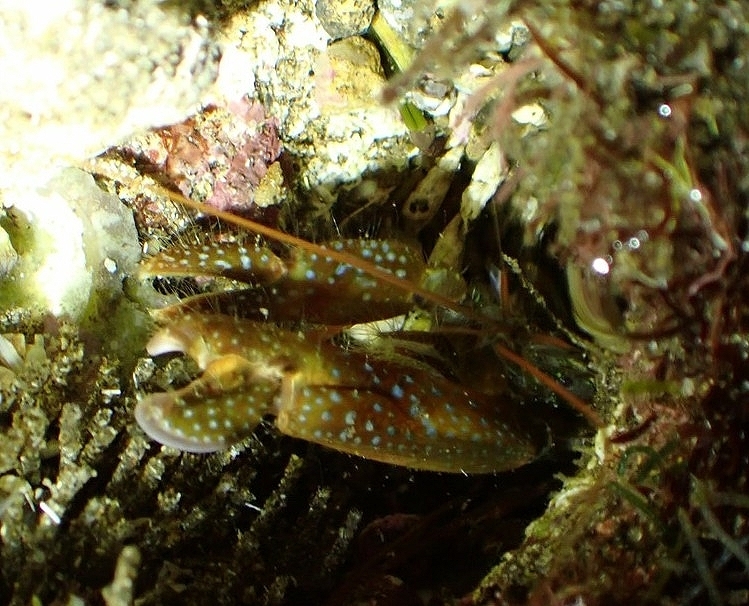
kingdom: Animalia
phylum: Arthropoda
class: Malacostraca
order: Decapoda
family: Alpheidae
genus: Alpheus
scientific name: Alpheus sulcatus
